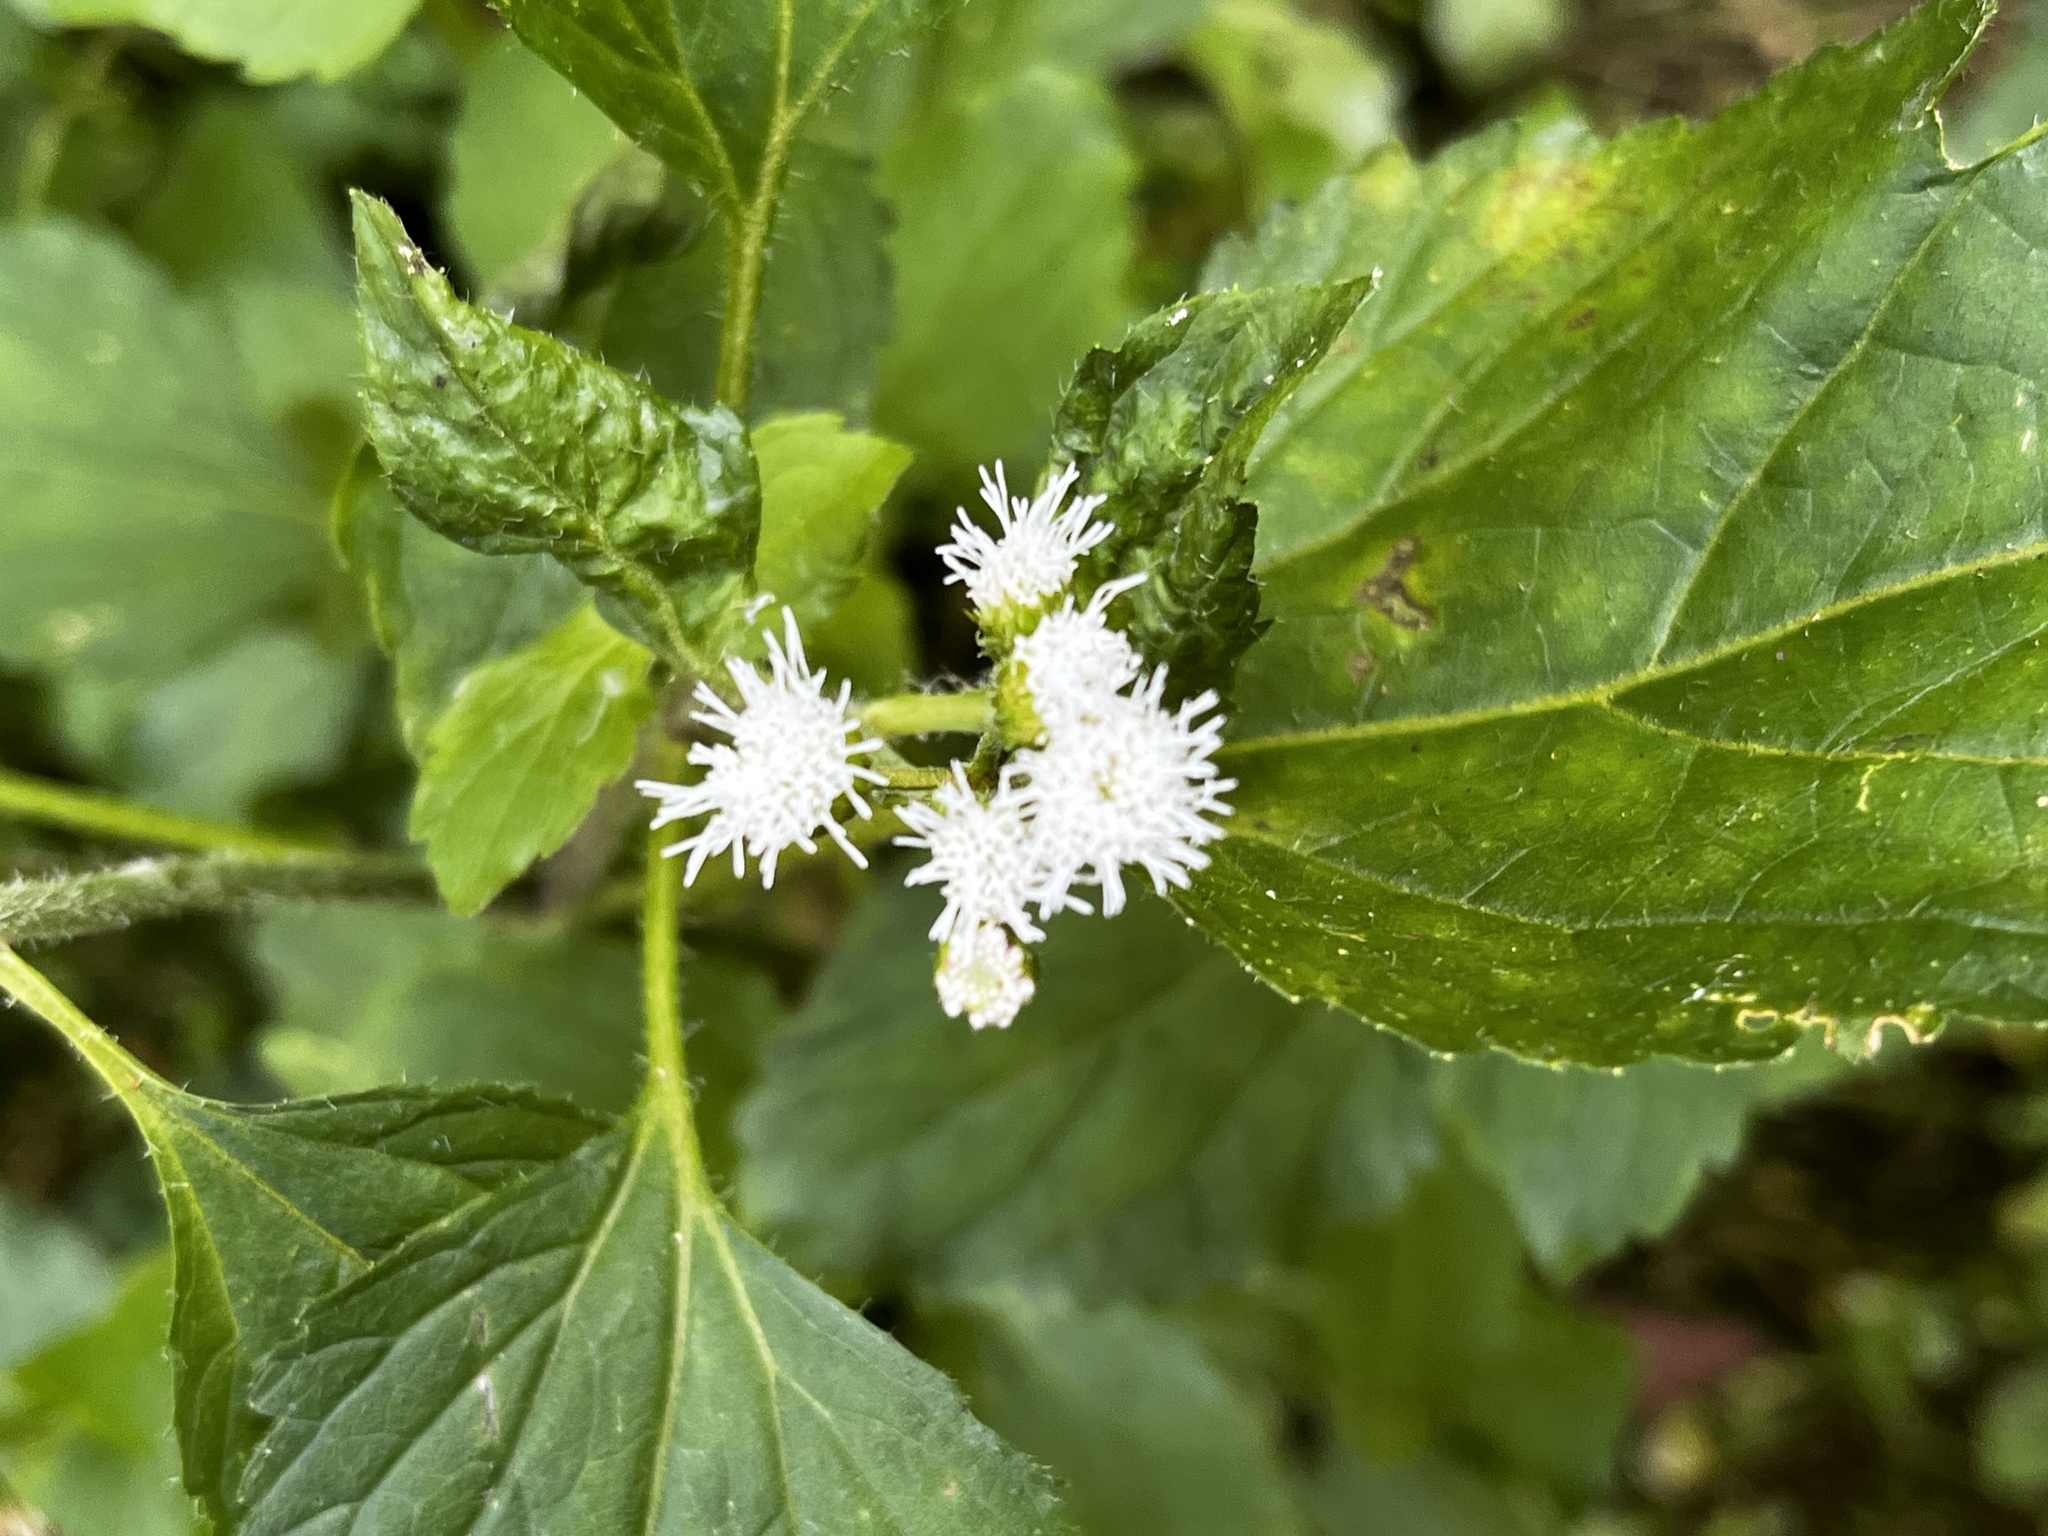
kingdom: Plantae
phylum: Tracheophyta
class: Magnoliopsida
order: Asterales
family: Asteraceae
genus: Ageratum
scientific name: Ageratum conyzoides
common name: Tropical whiteweed
